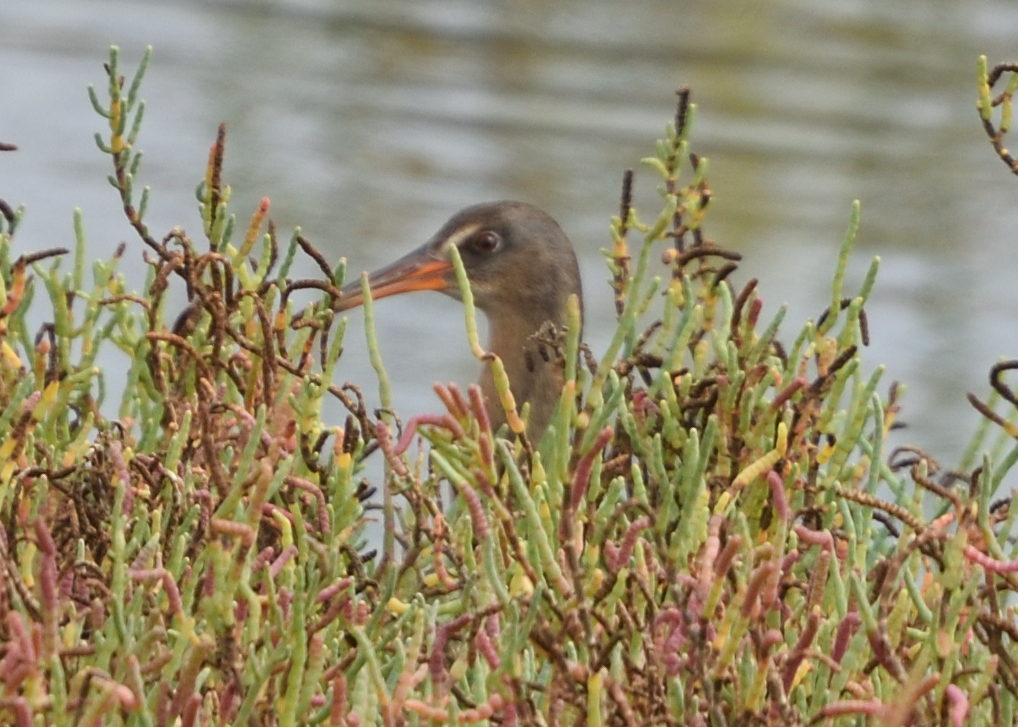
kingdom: Animalia
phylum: Chordata
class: Aves
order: Gruiformes
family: Rallidae
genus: Rallus
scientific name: Rallus obsoletus
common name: Ridgway's rail
